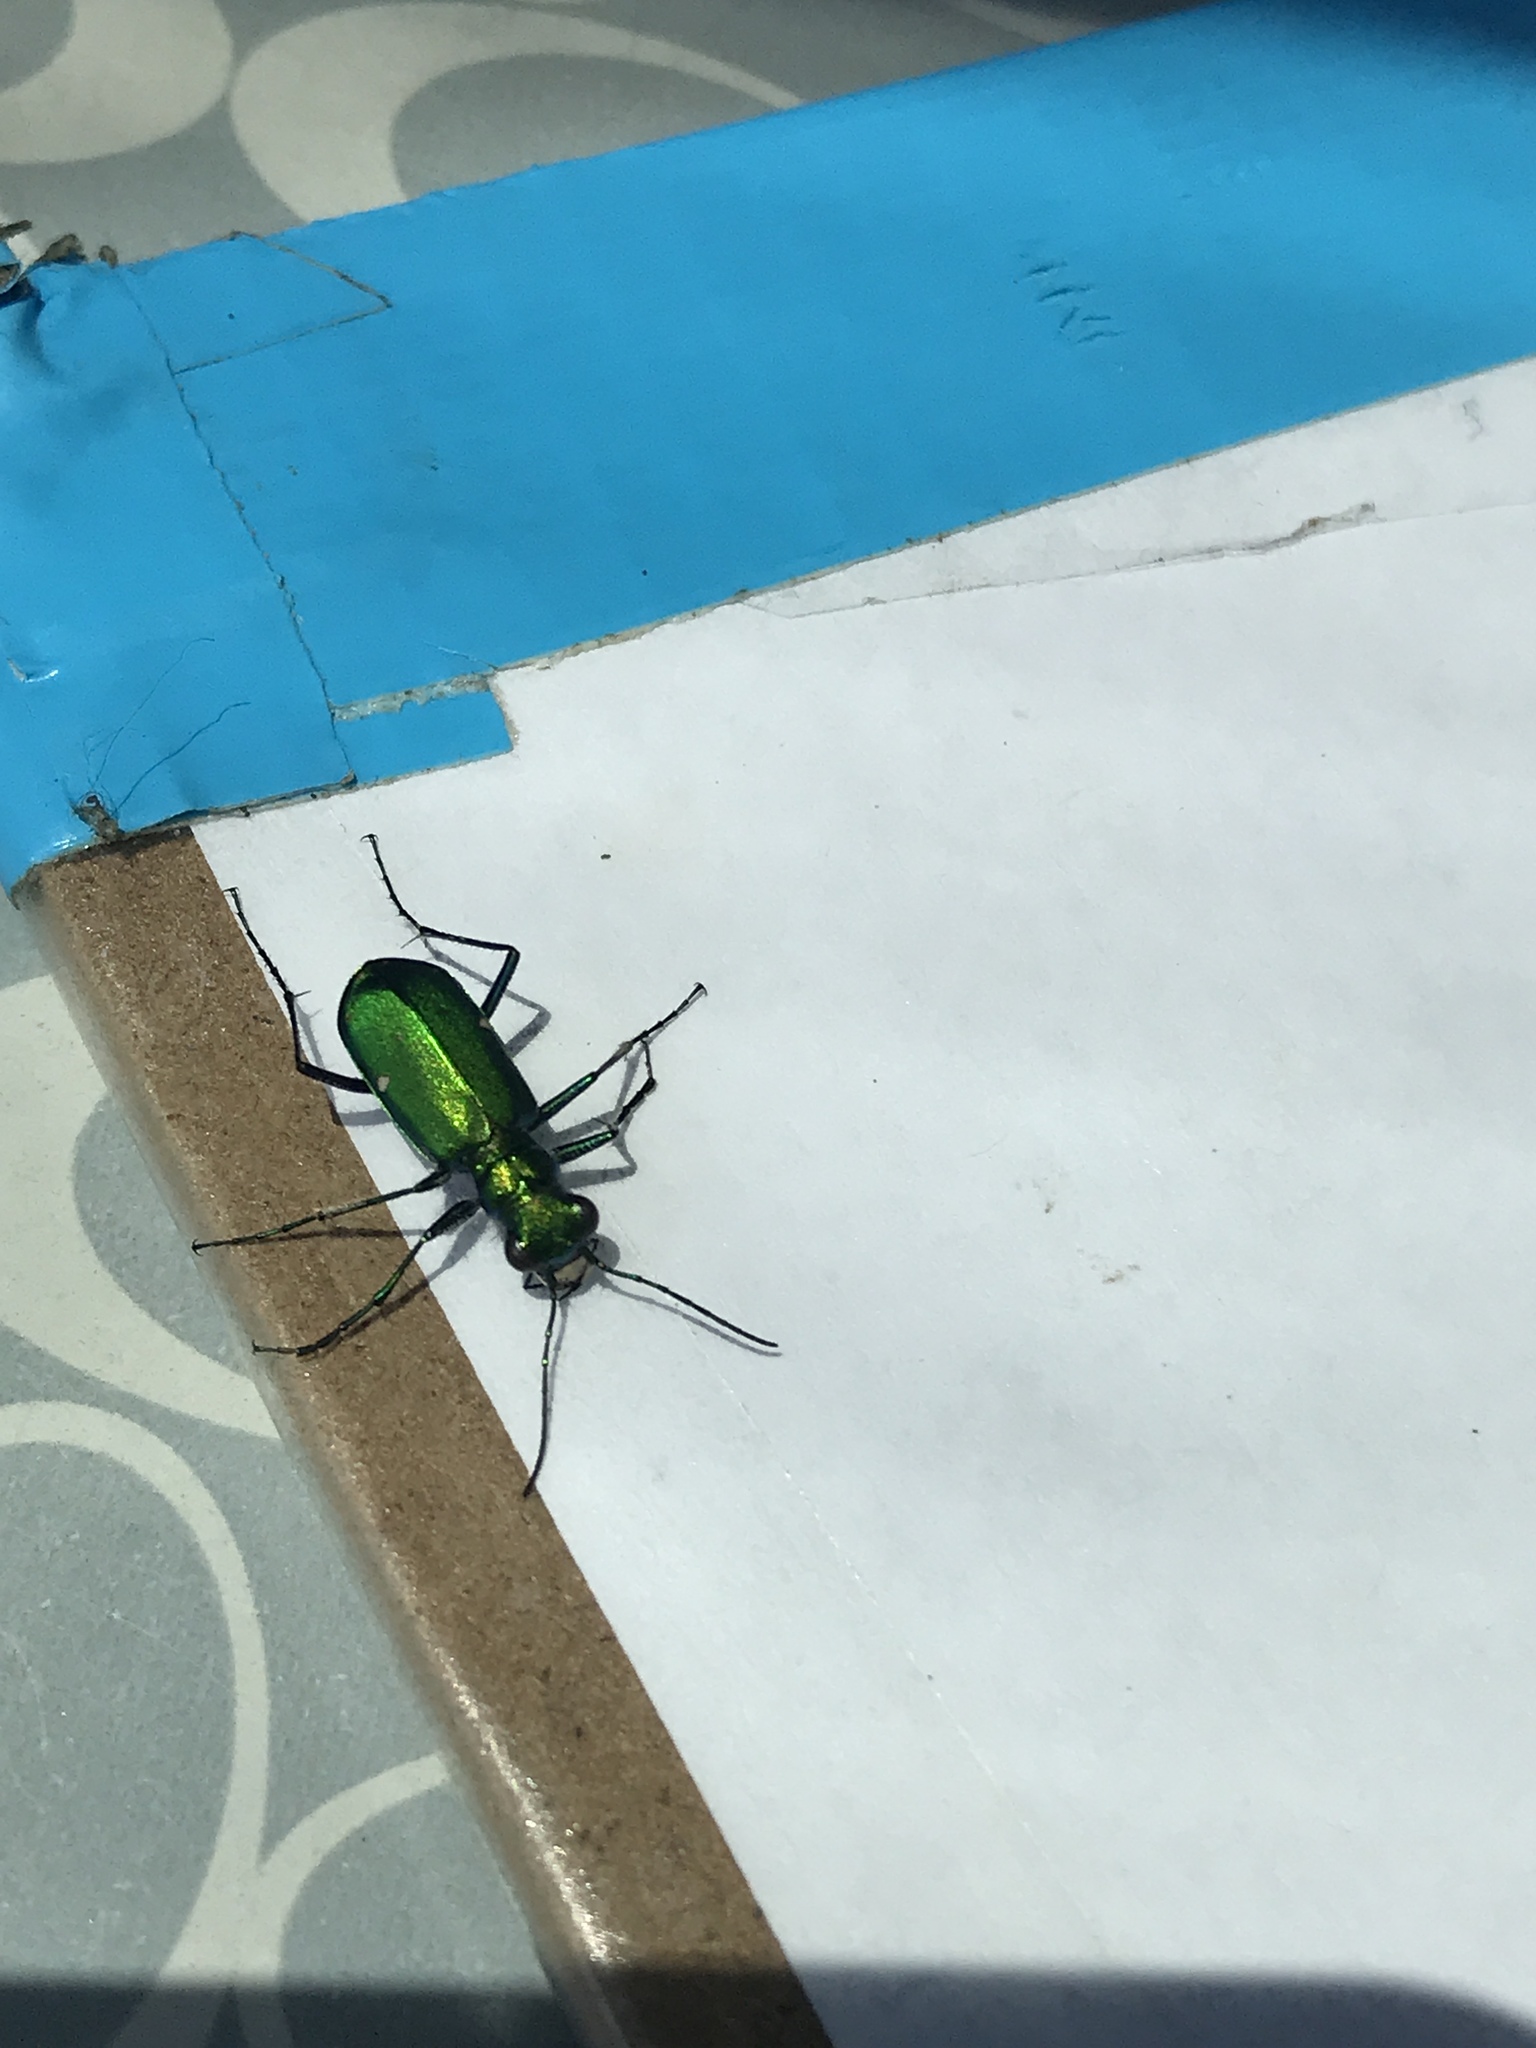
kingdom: Animalia
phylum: Arthropoda
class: Insecta
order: Coleoptera
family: Carabidae
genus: Cicindela
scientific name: Cicindela sexguttata
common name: Six-spotted tiger beetle
